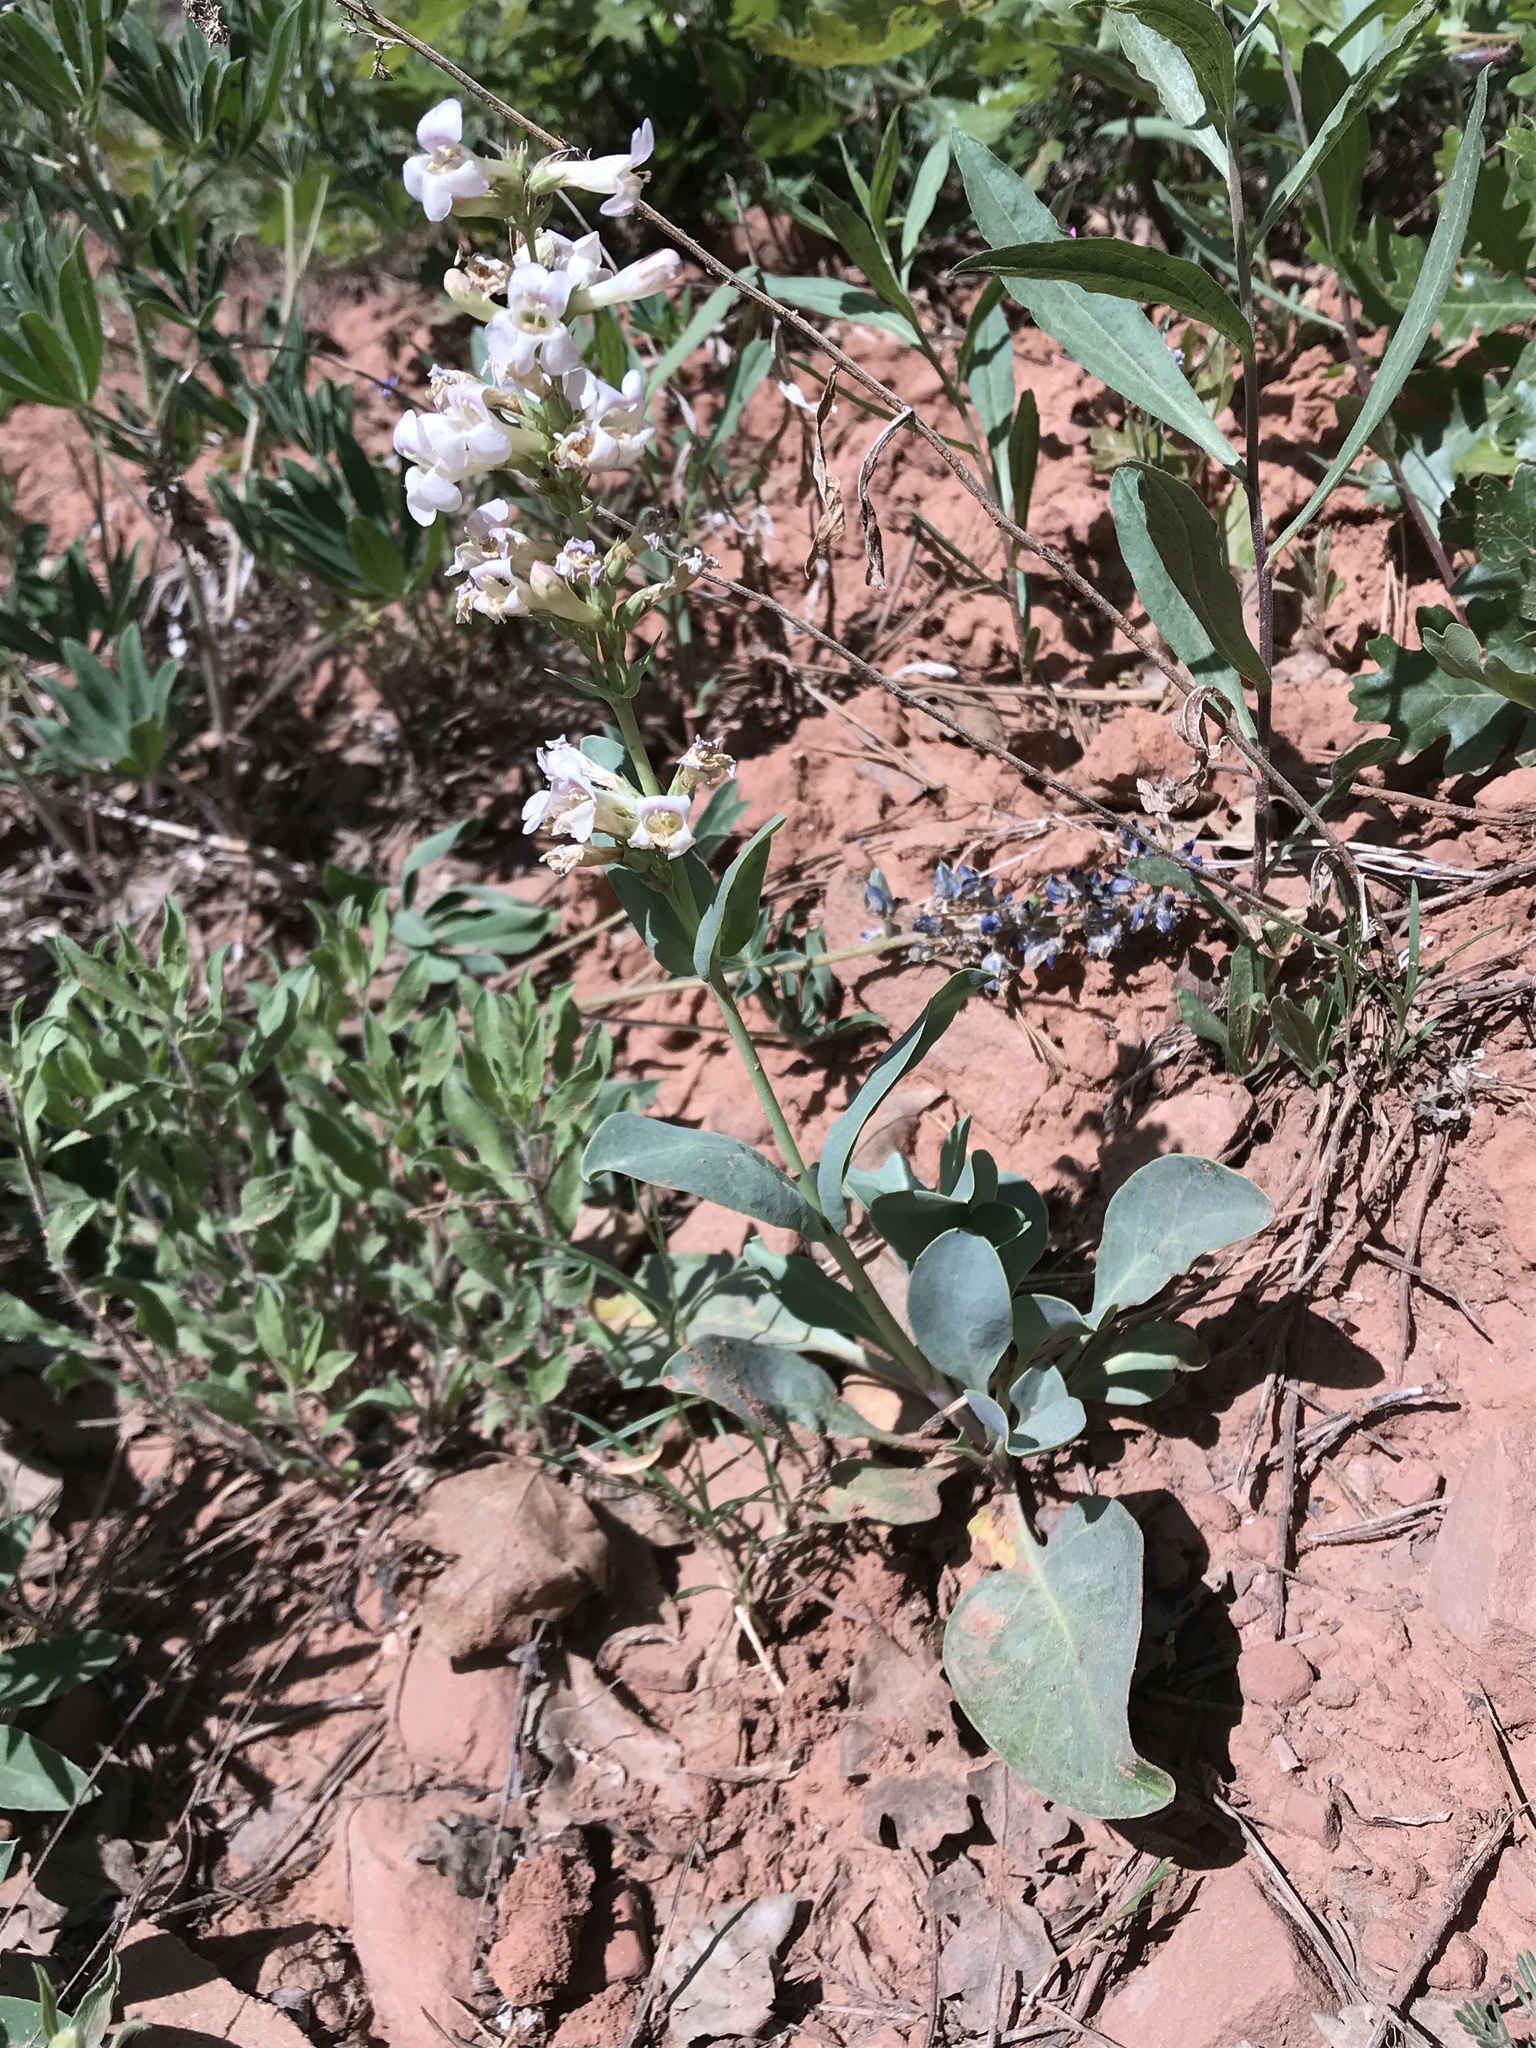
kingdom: Plantae
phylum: Tracheophyta
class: Magnoliopsida
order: Lamiales
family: Plantaginaceae
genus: Penstemon
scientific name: Penstemon lentus
